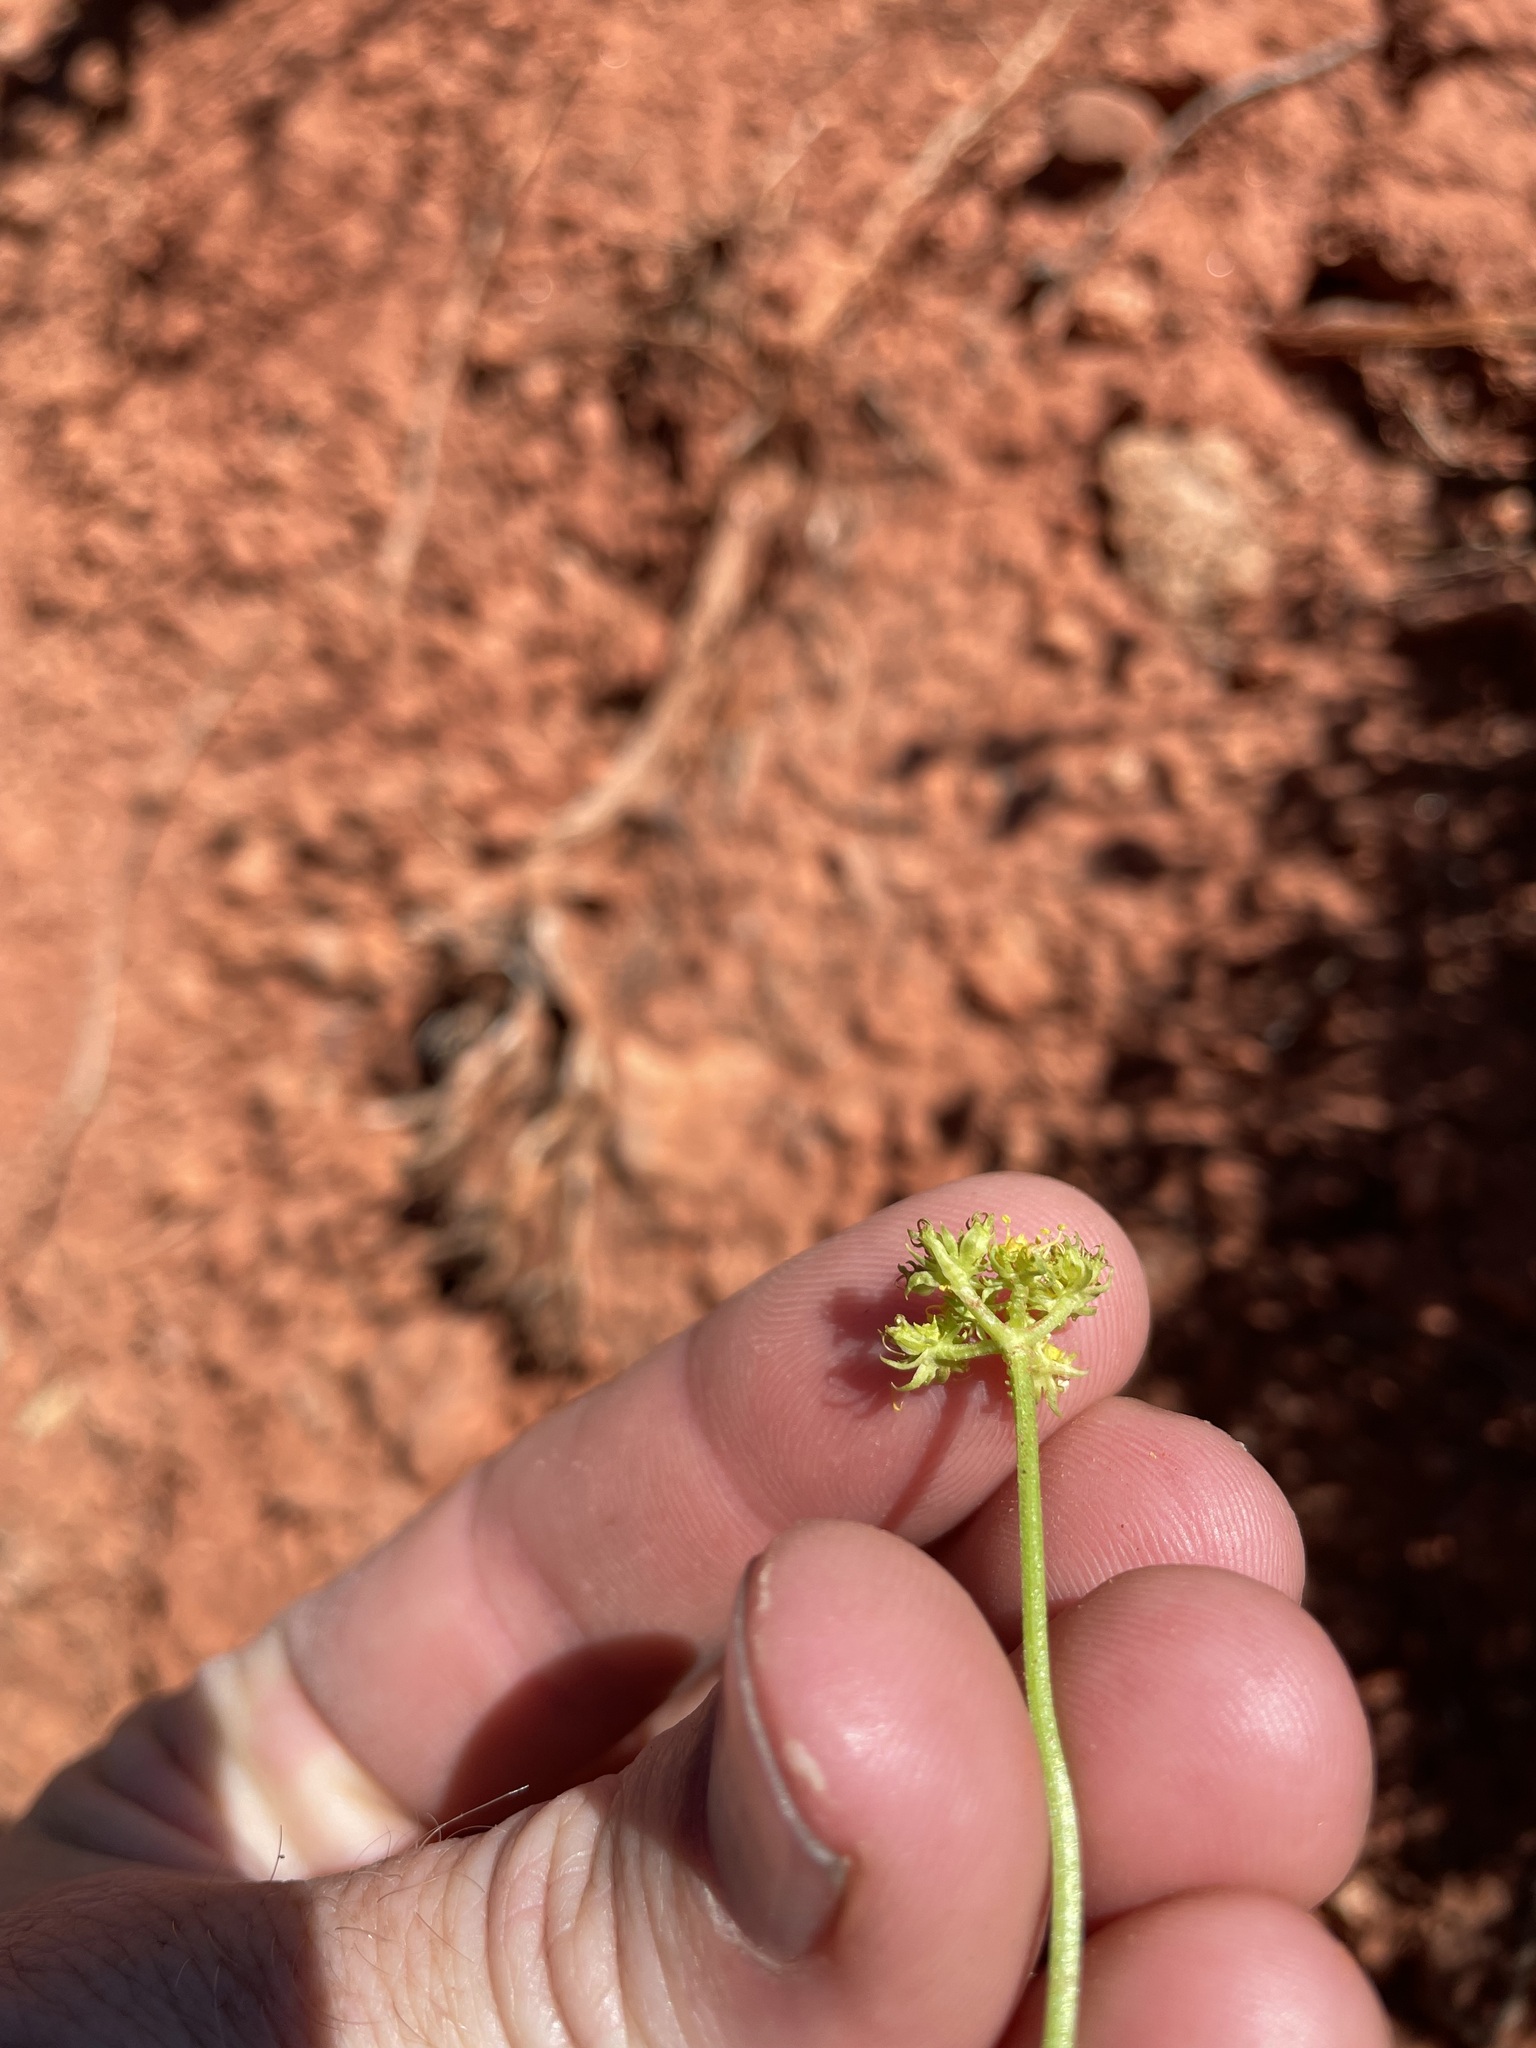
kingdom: Plantae
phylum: Tracheophyta
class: Magnoliopsida
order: Apiales
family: Apiaceae
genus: Cymopterus
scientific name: Cymopterus sessiliflorus
